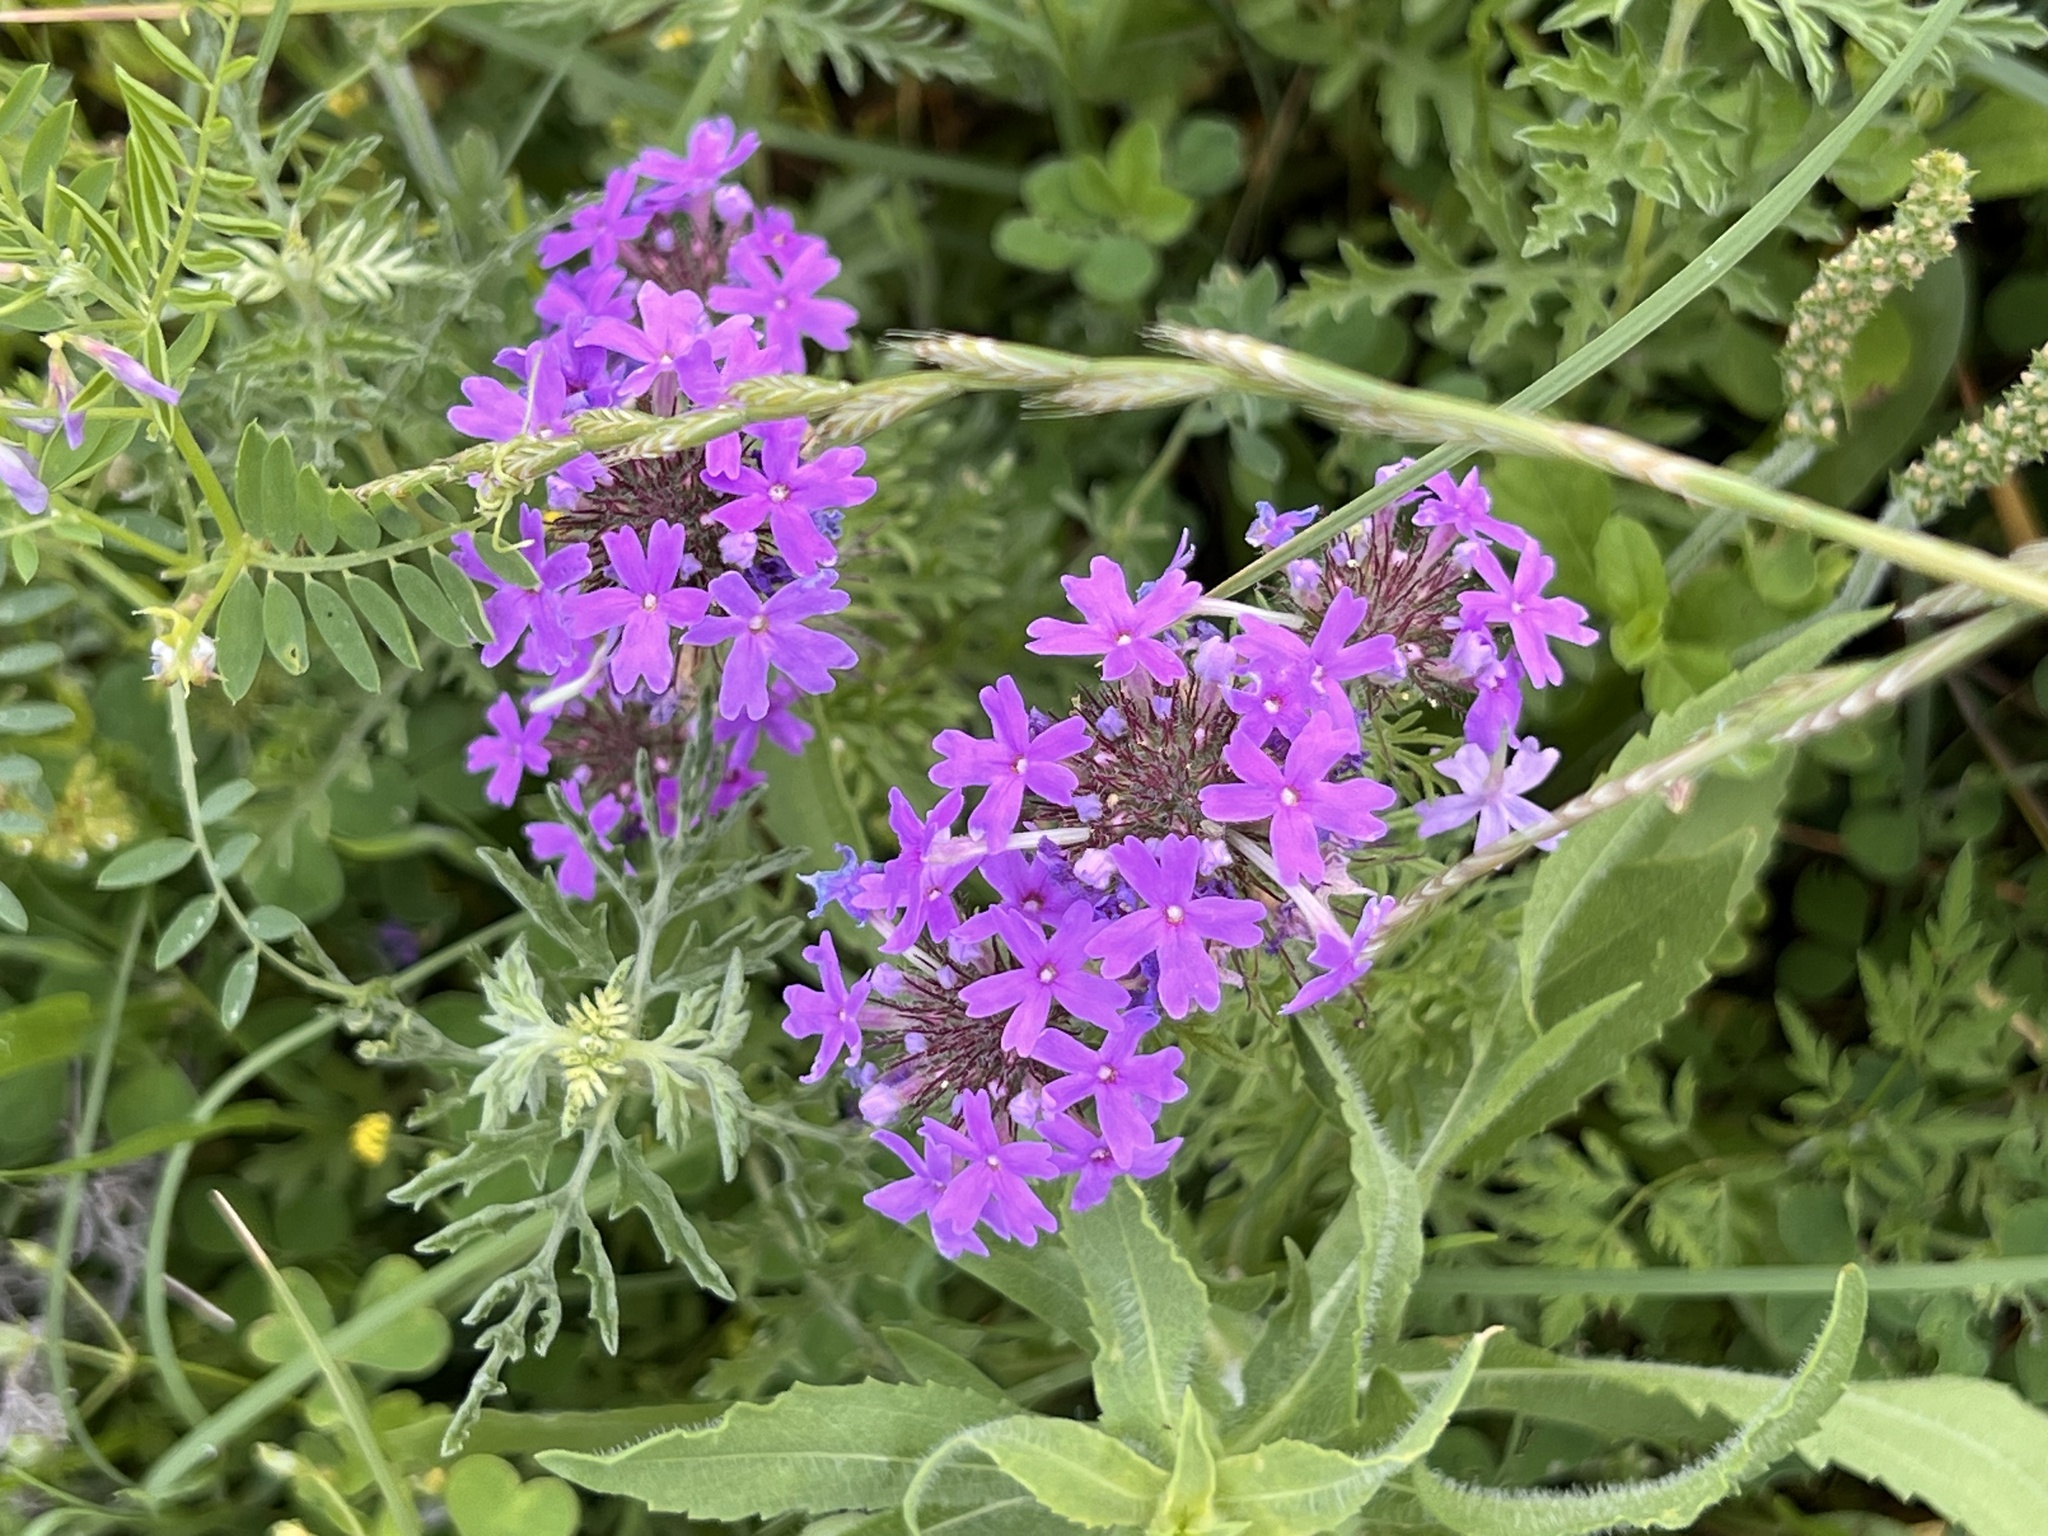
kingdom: Plantae
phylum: Tracheophyta
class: Magnoliopsida
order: Lamiales
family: Verbenaceae
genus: Verbena
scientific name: Verbena bipinnatifida
